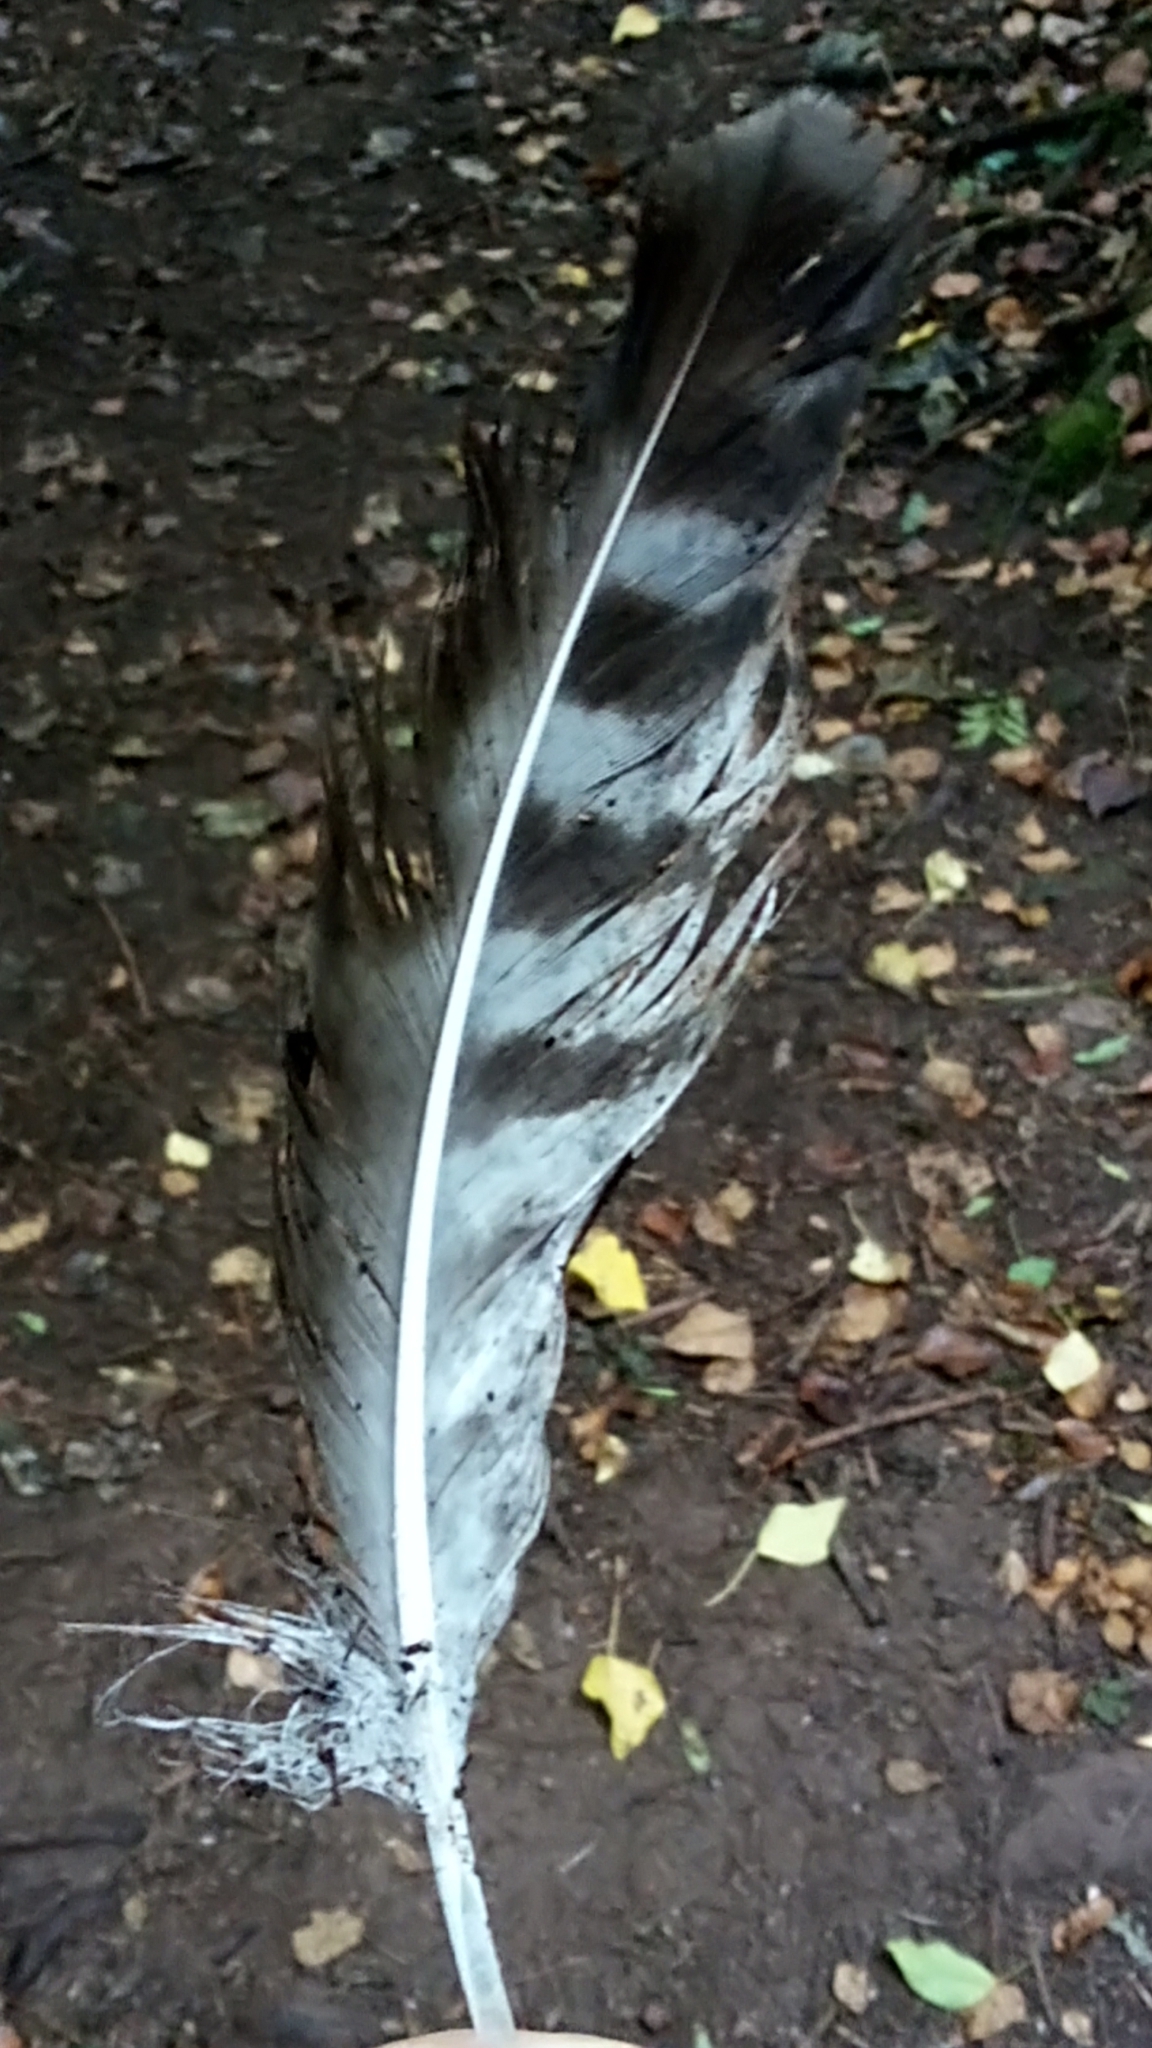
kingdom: Animalia
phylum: Chordata
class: Aves
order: Accipitriformes
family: Accipitridae
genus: Buteo
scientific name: Buteo buteo
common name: Common buzzard
